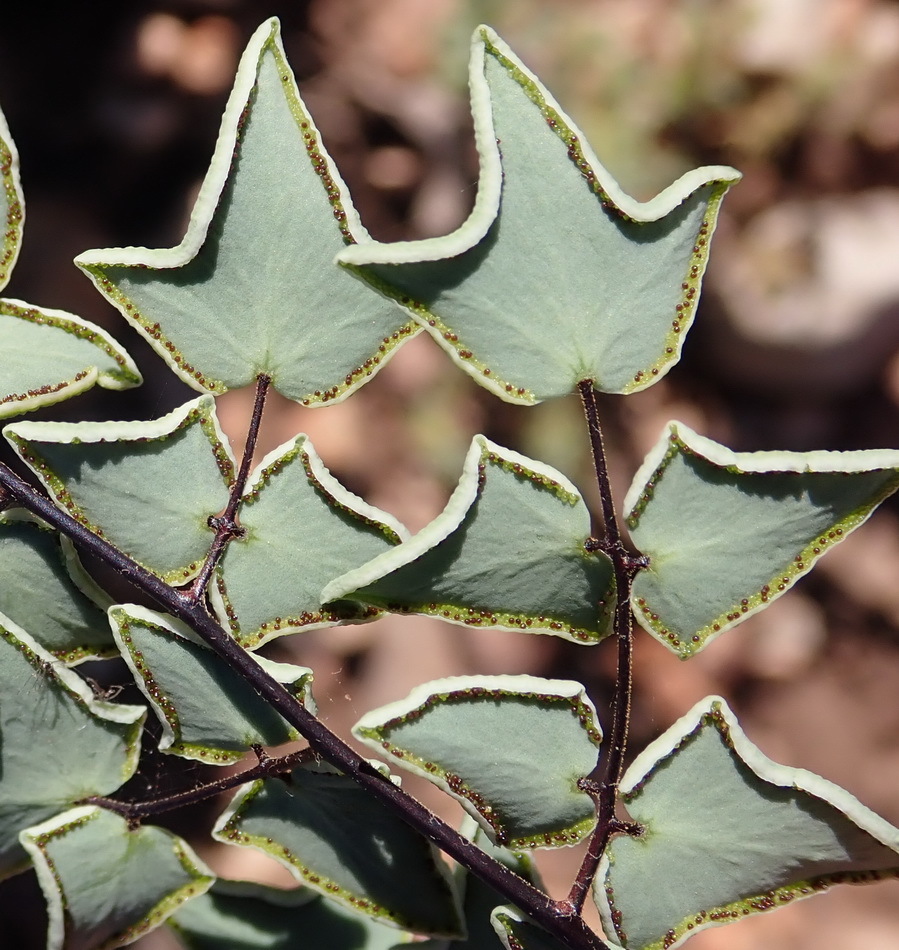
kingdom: Plantae
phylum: Tracheophyta
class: Polypodiopsida
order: Polypodiales
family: Pteridaceae
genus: Pellaea
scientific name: Pellaea leucomelas
